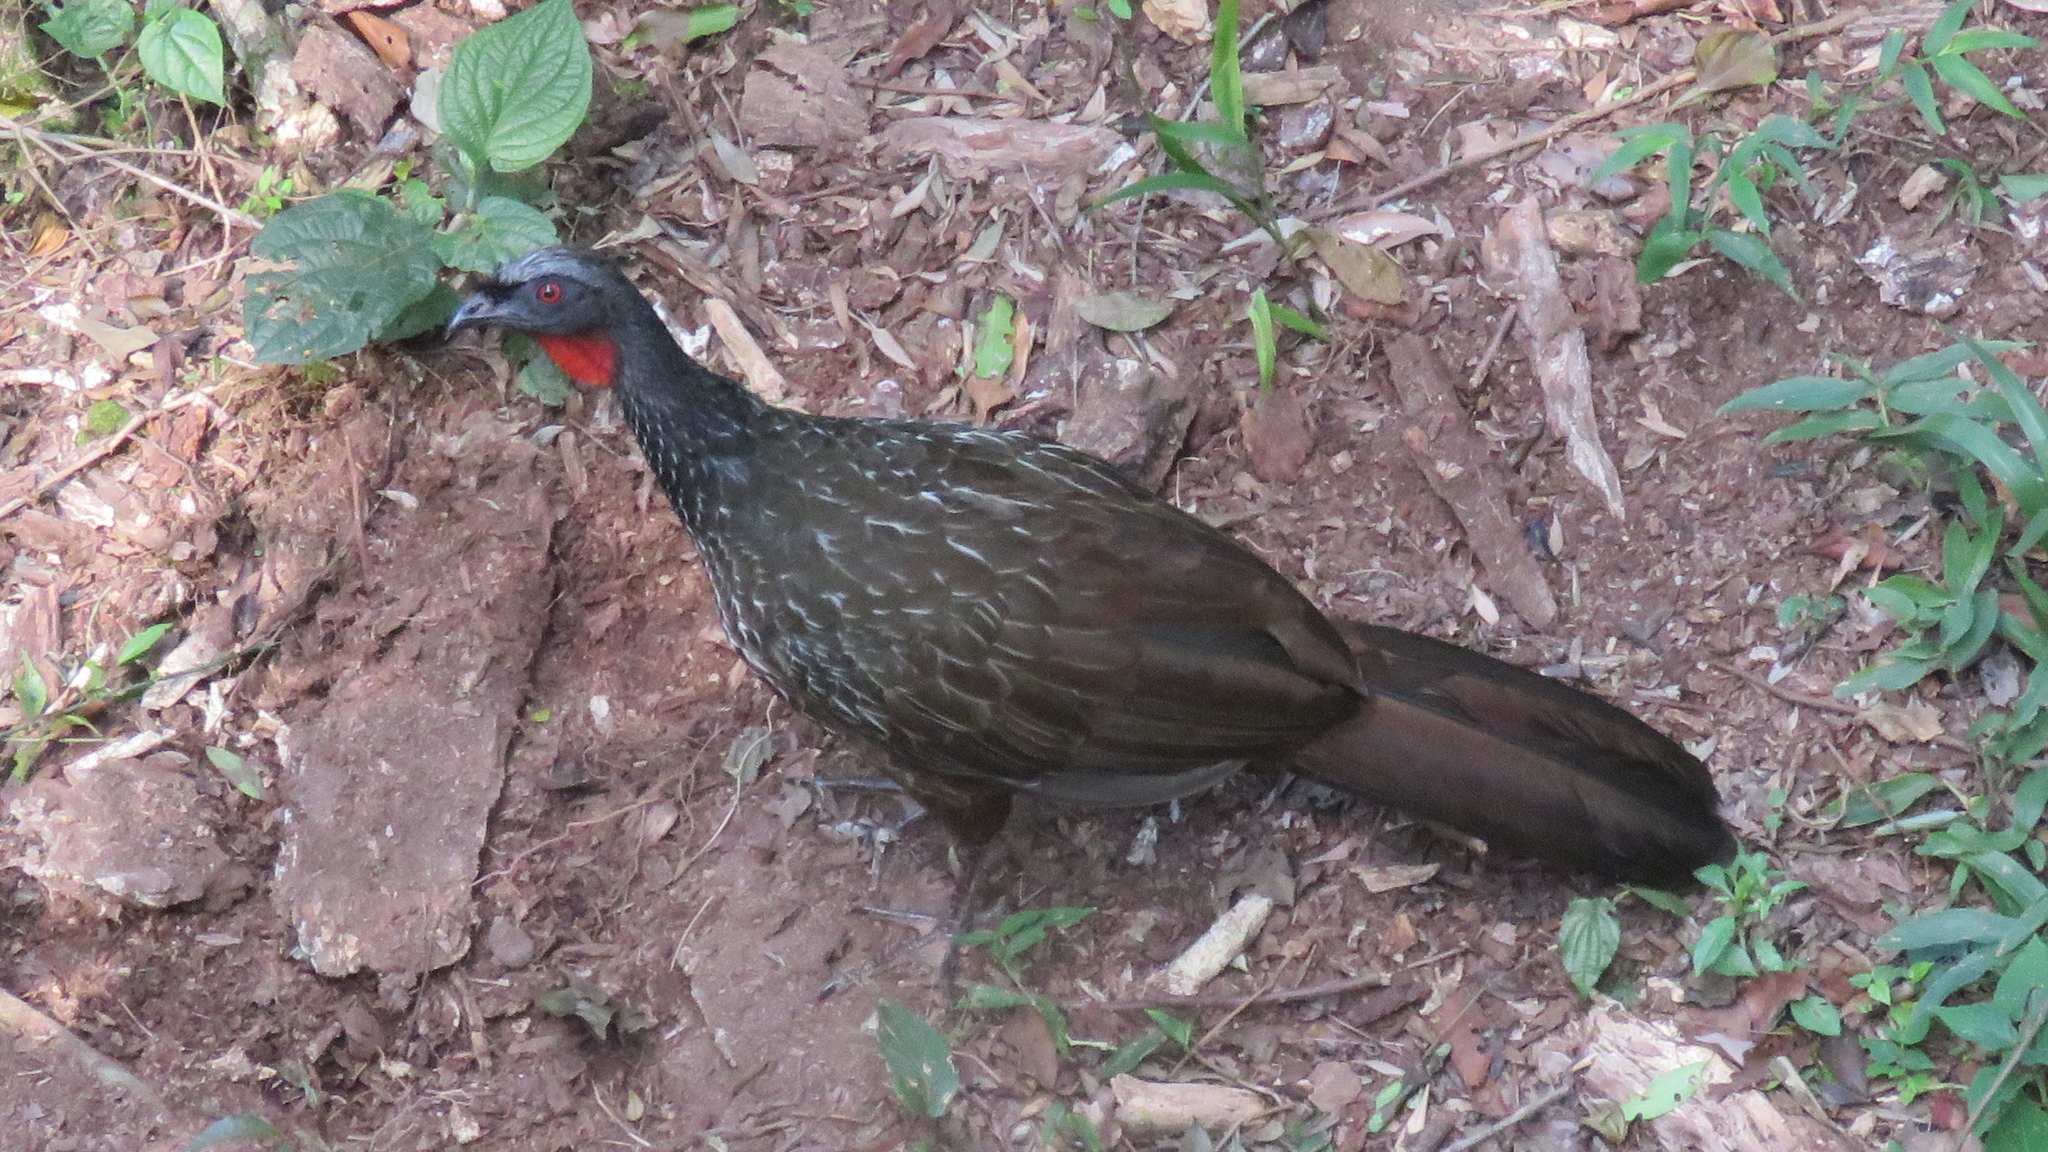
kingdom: Animalia
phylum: Chordata
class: Aves
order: Galliformes
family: Cracidae
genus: Penelope
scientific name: Penelope obscura
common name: Dusky-legged guan
